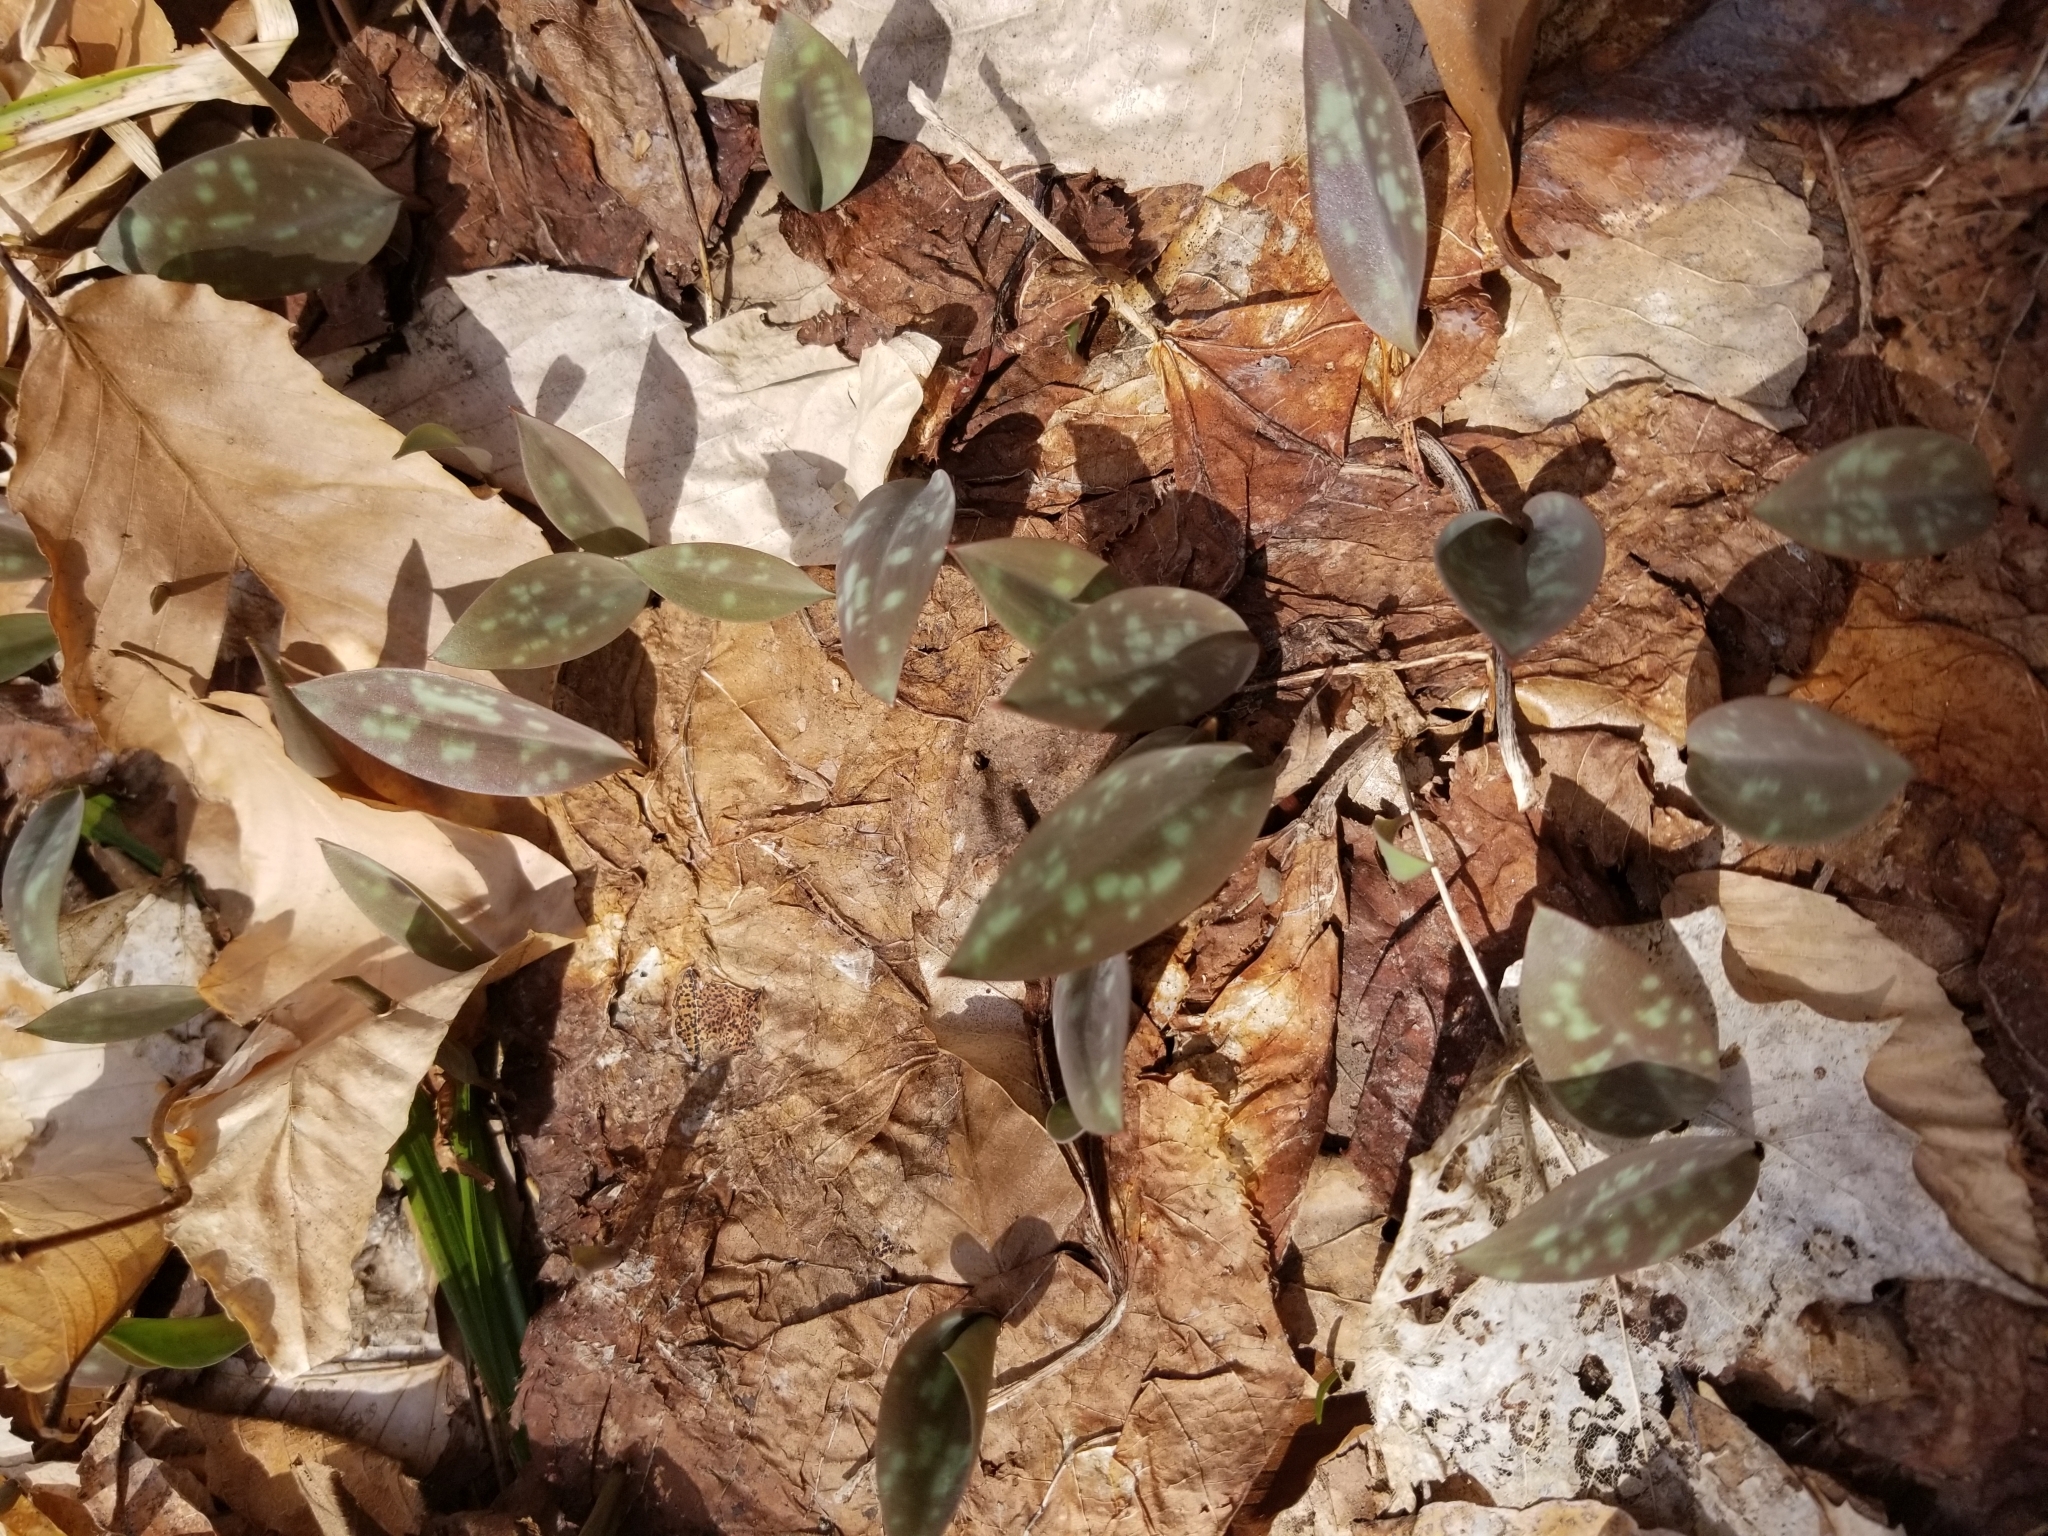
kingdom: Plantae
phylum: Tracheophyta
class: Liliopsida
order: Liliales
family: Liliaceae
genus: Erythronium
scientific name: Erythronium americanum
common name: Yellow adder's-tongue
